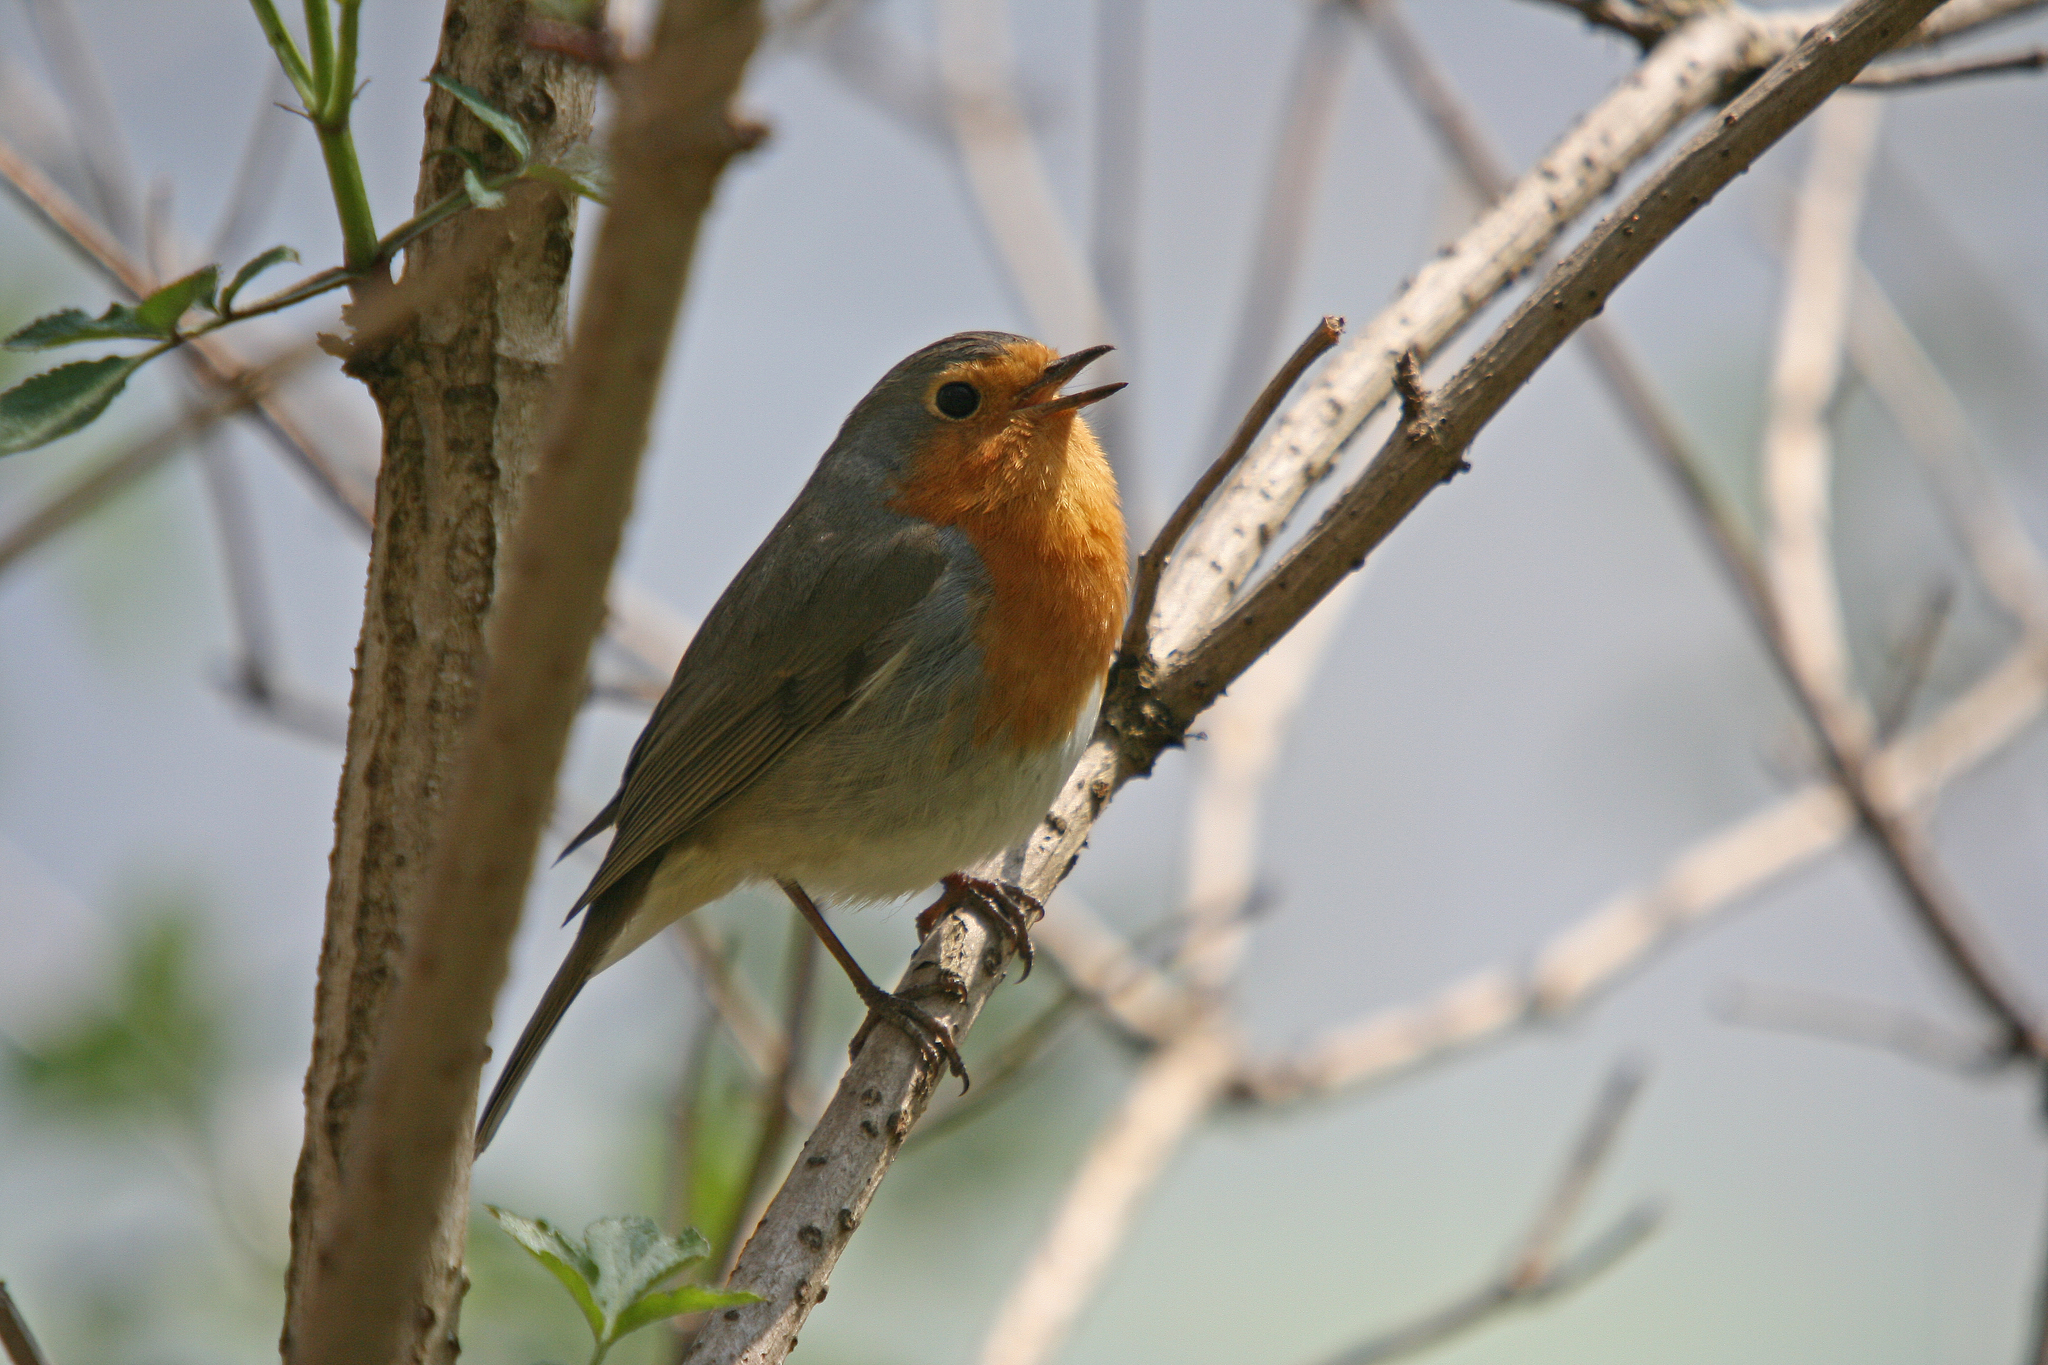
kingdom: Animalia
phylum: Chordata
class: Aves
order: Passeriformes
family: Muscicapidae
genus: Erithacus
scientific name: Erithacus rubecula
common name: European robin
